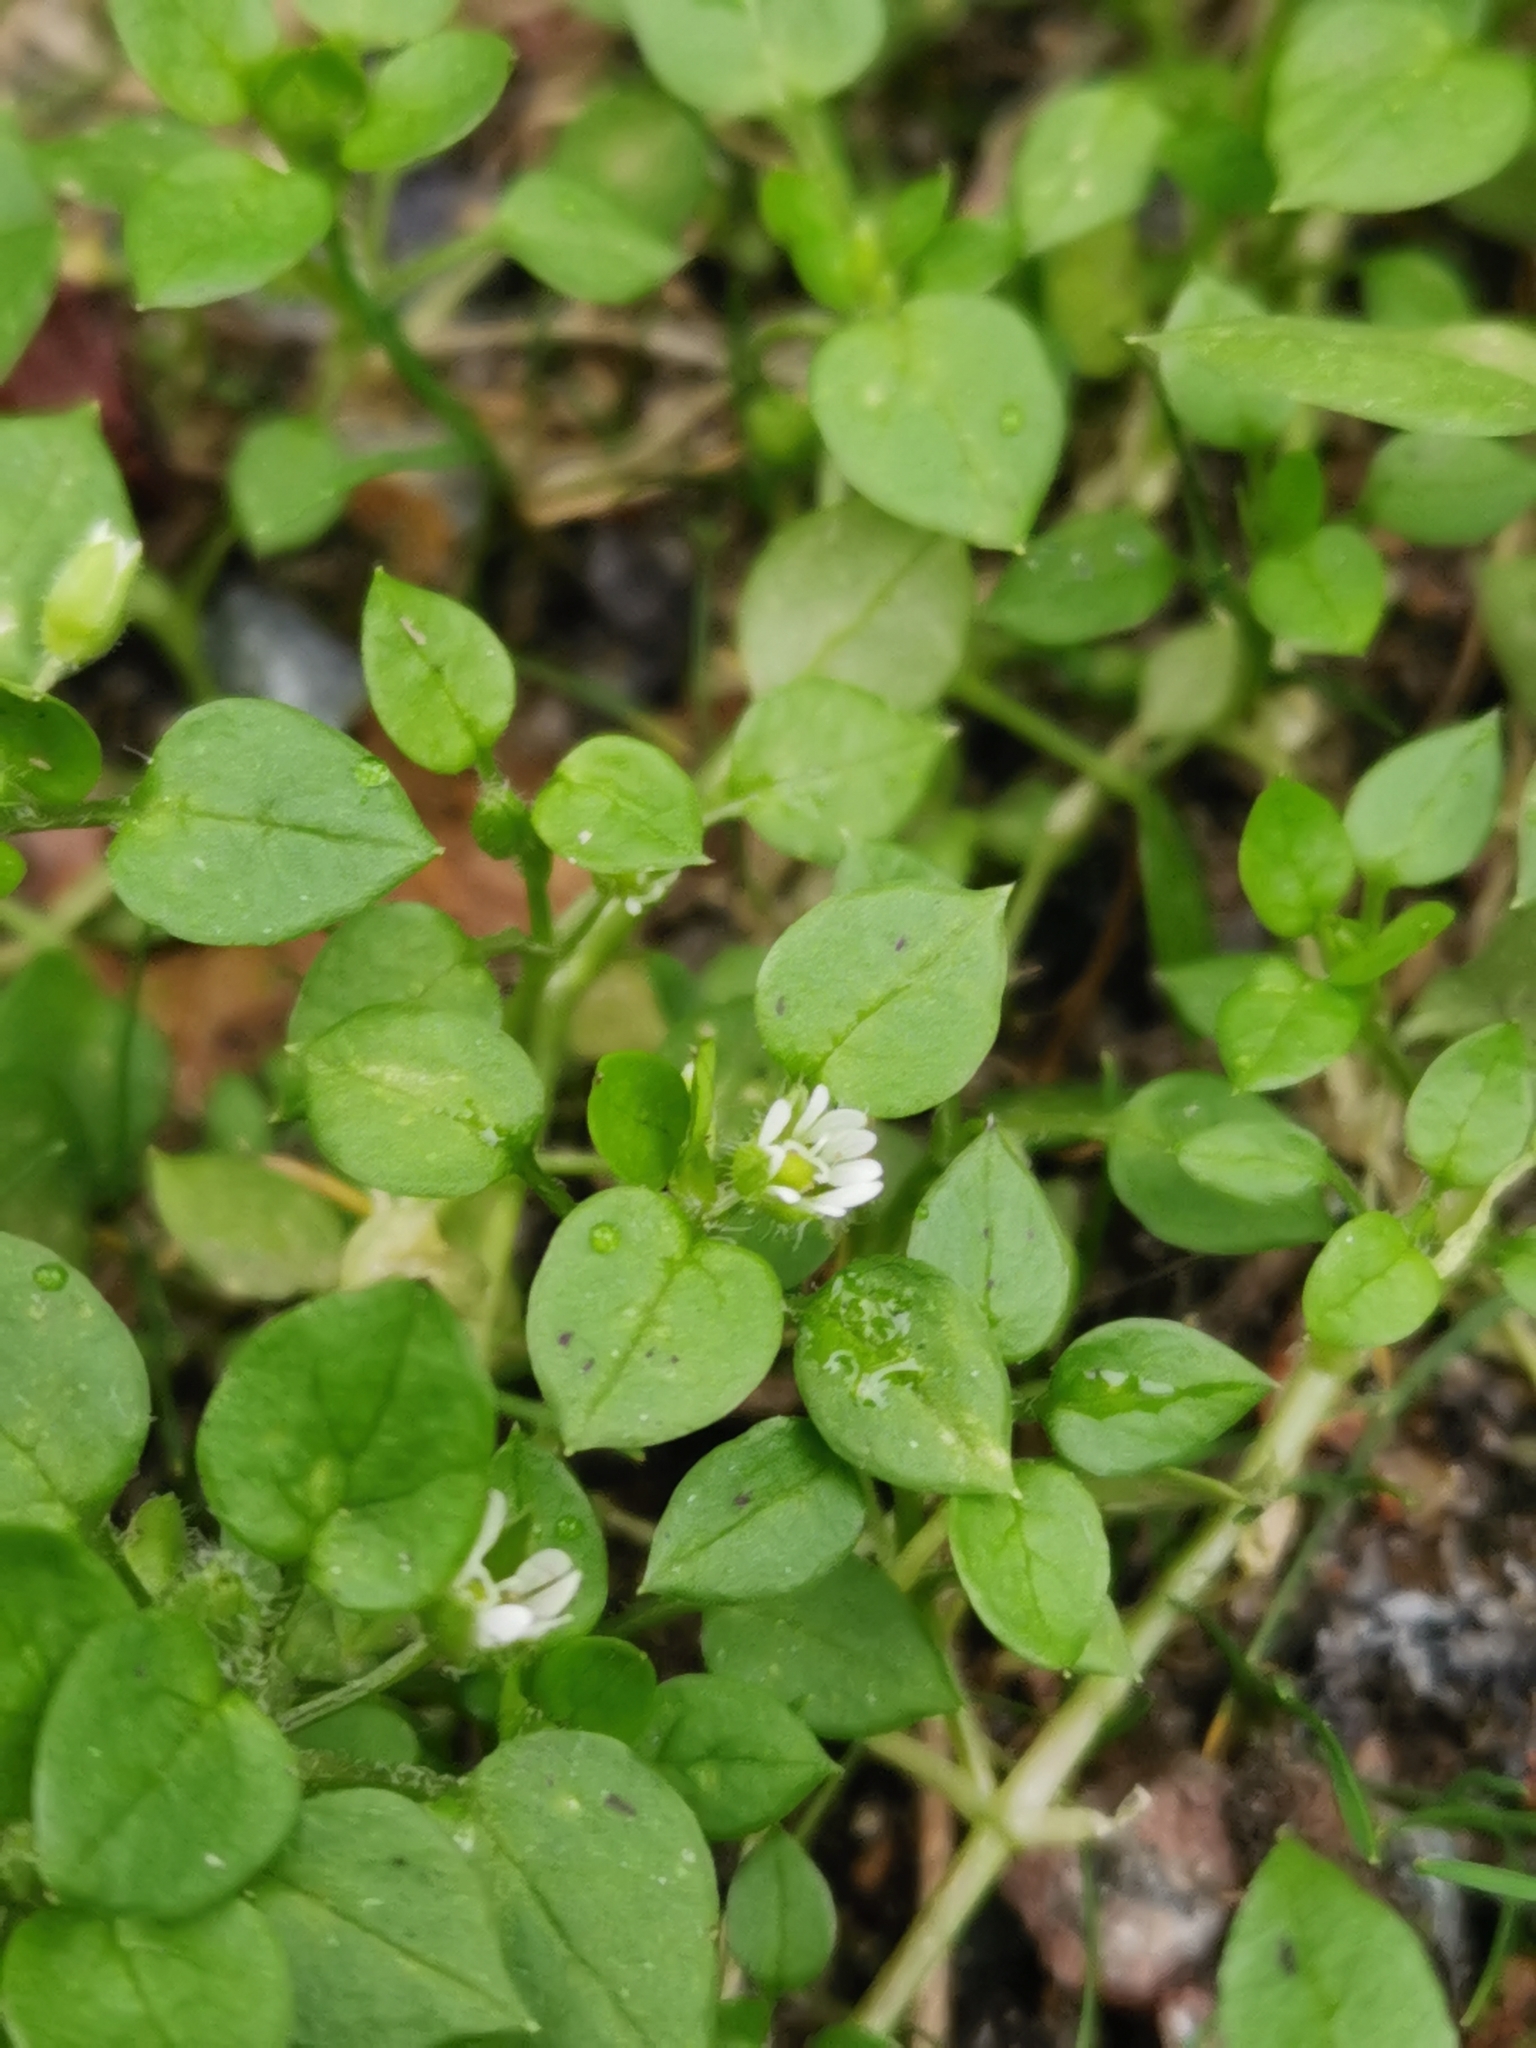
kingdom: Plantae
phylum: Tracheophyta
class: Magnoliopsida
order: Caryophyllales
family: Caryophyllaceae
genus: Stellaria
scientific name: Stellaria media
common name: Common chickweed
